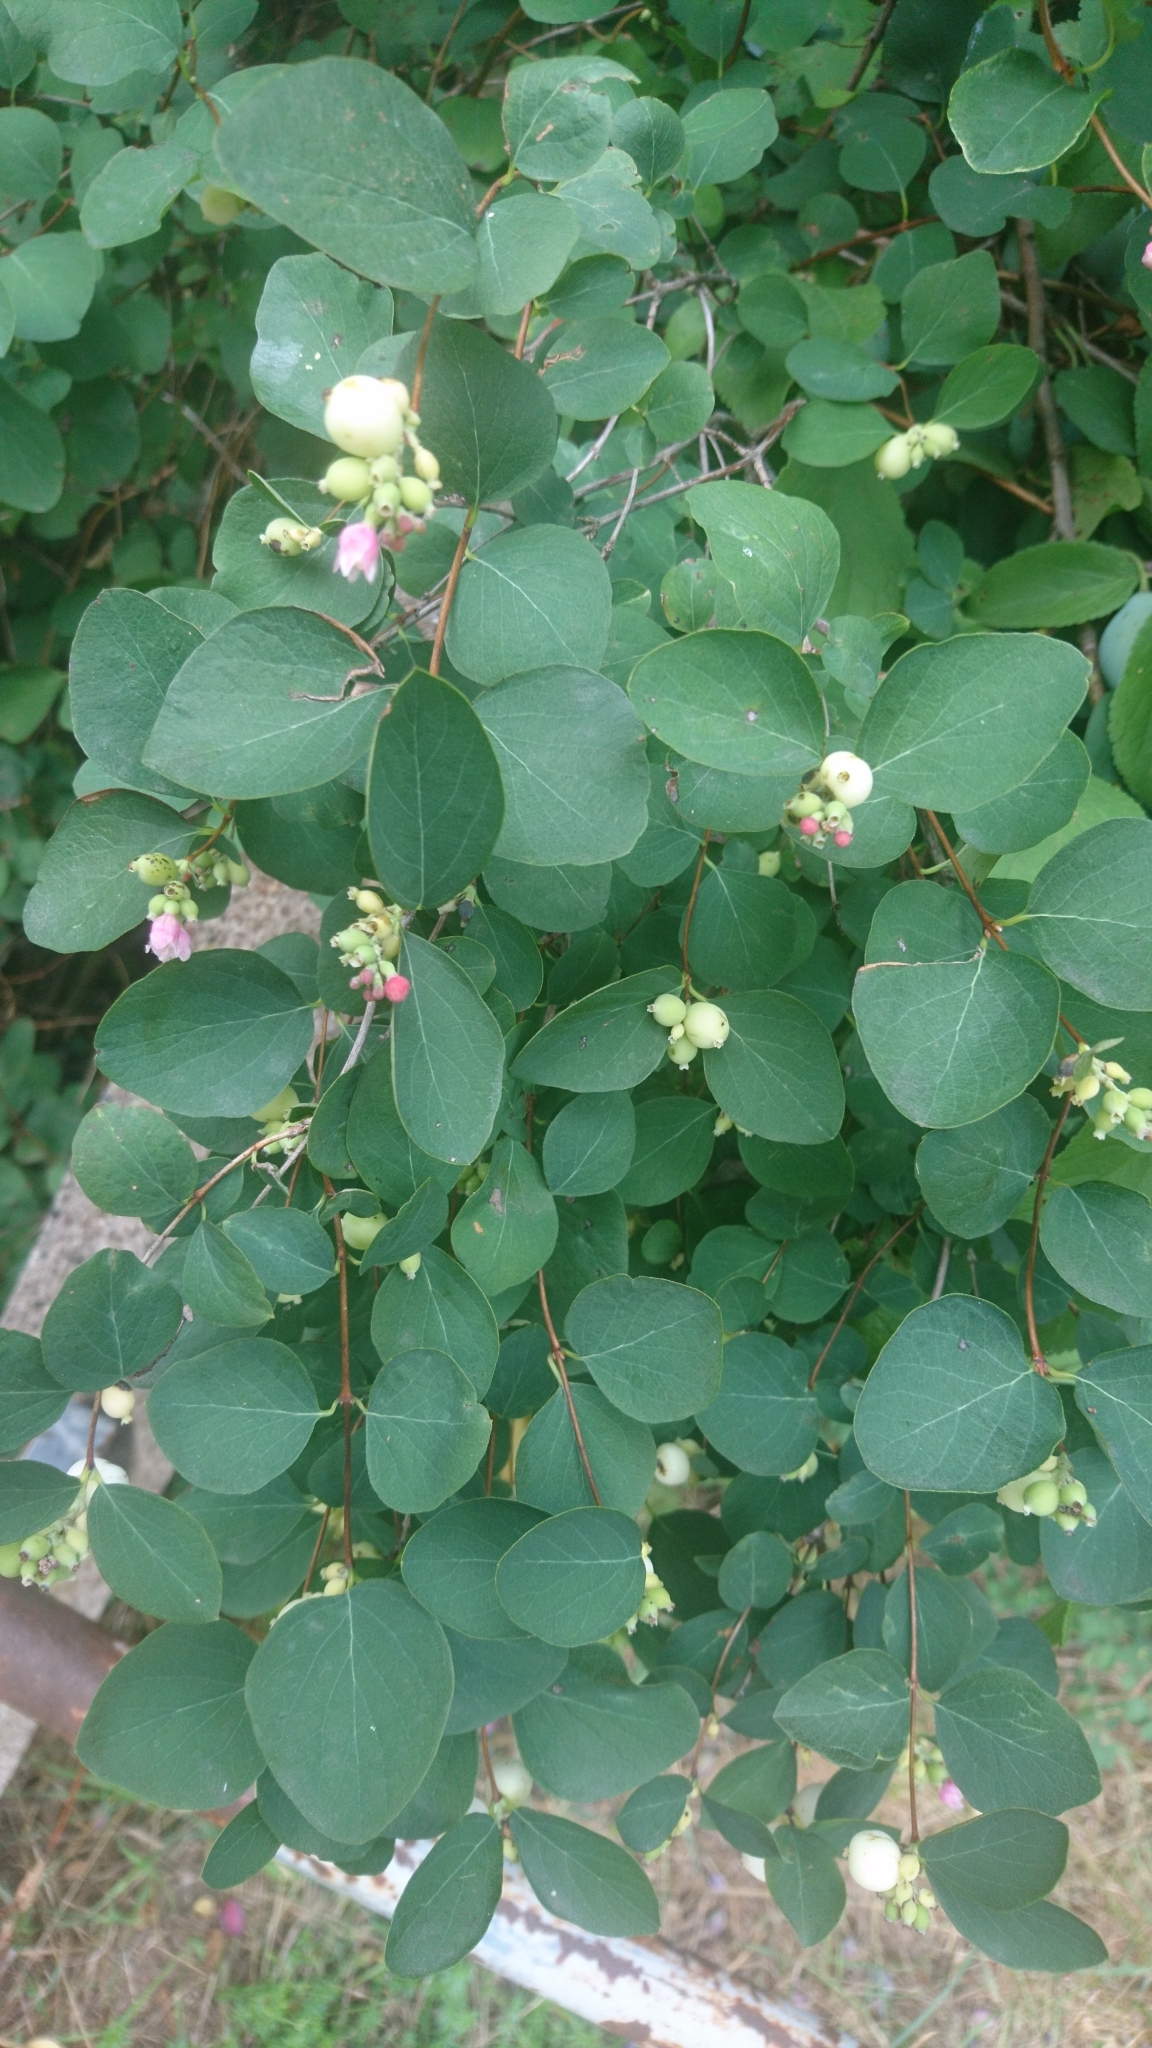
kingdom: Plantae
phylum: Tracheophyta
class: Magnoliopsida
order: Dipsacales
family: Caprifoliaceae
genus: Symphoricarpos
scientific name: Symphoricarpos albus
